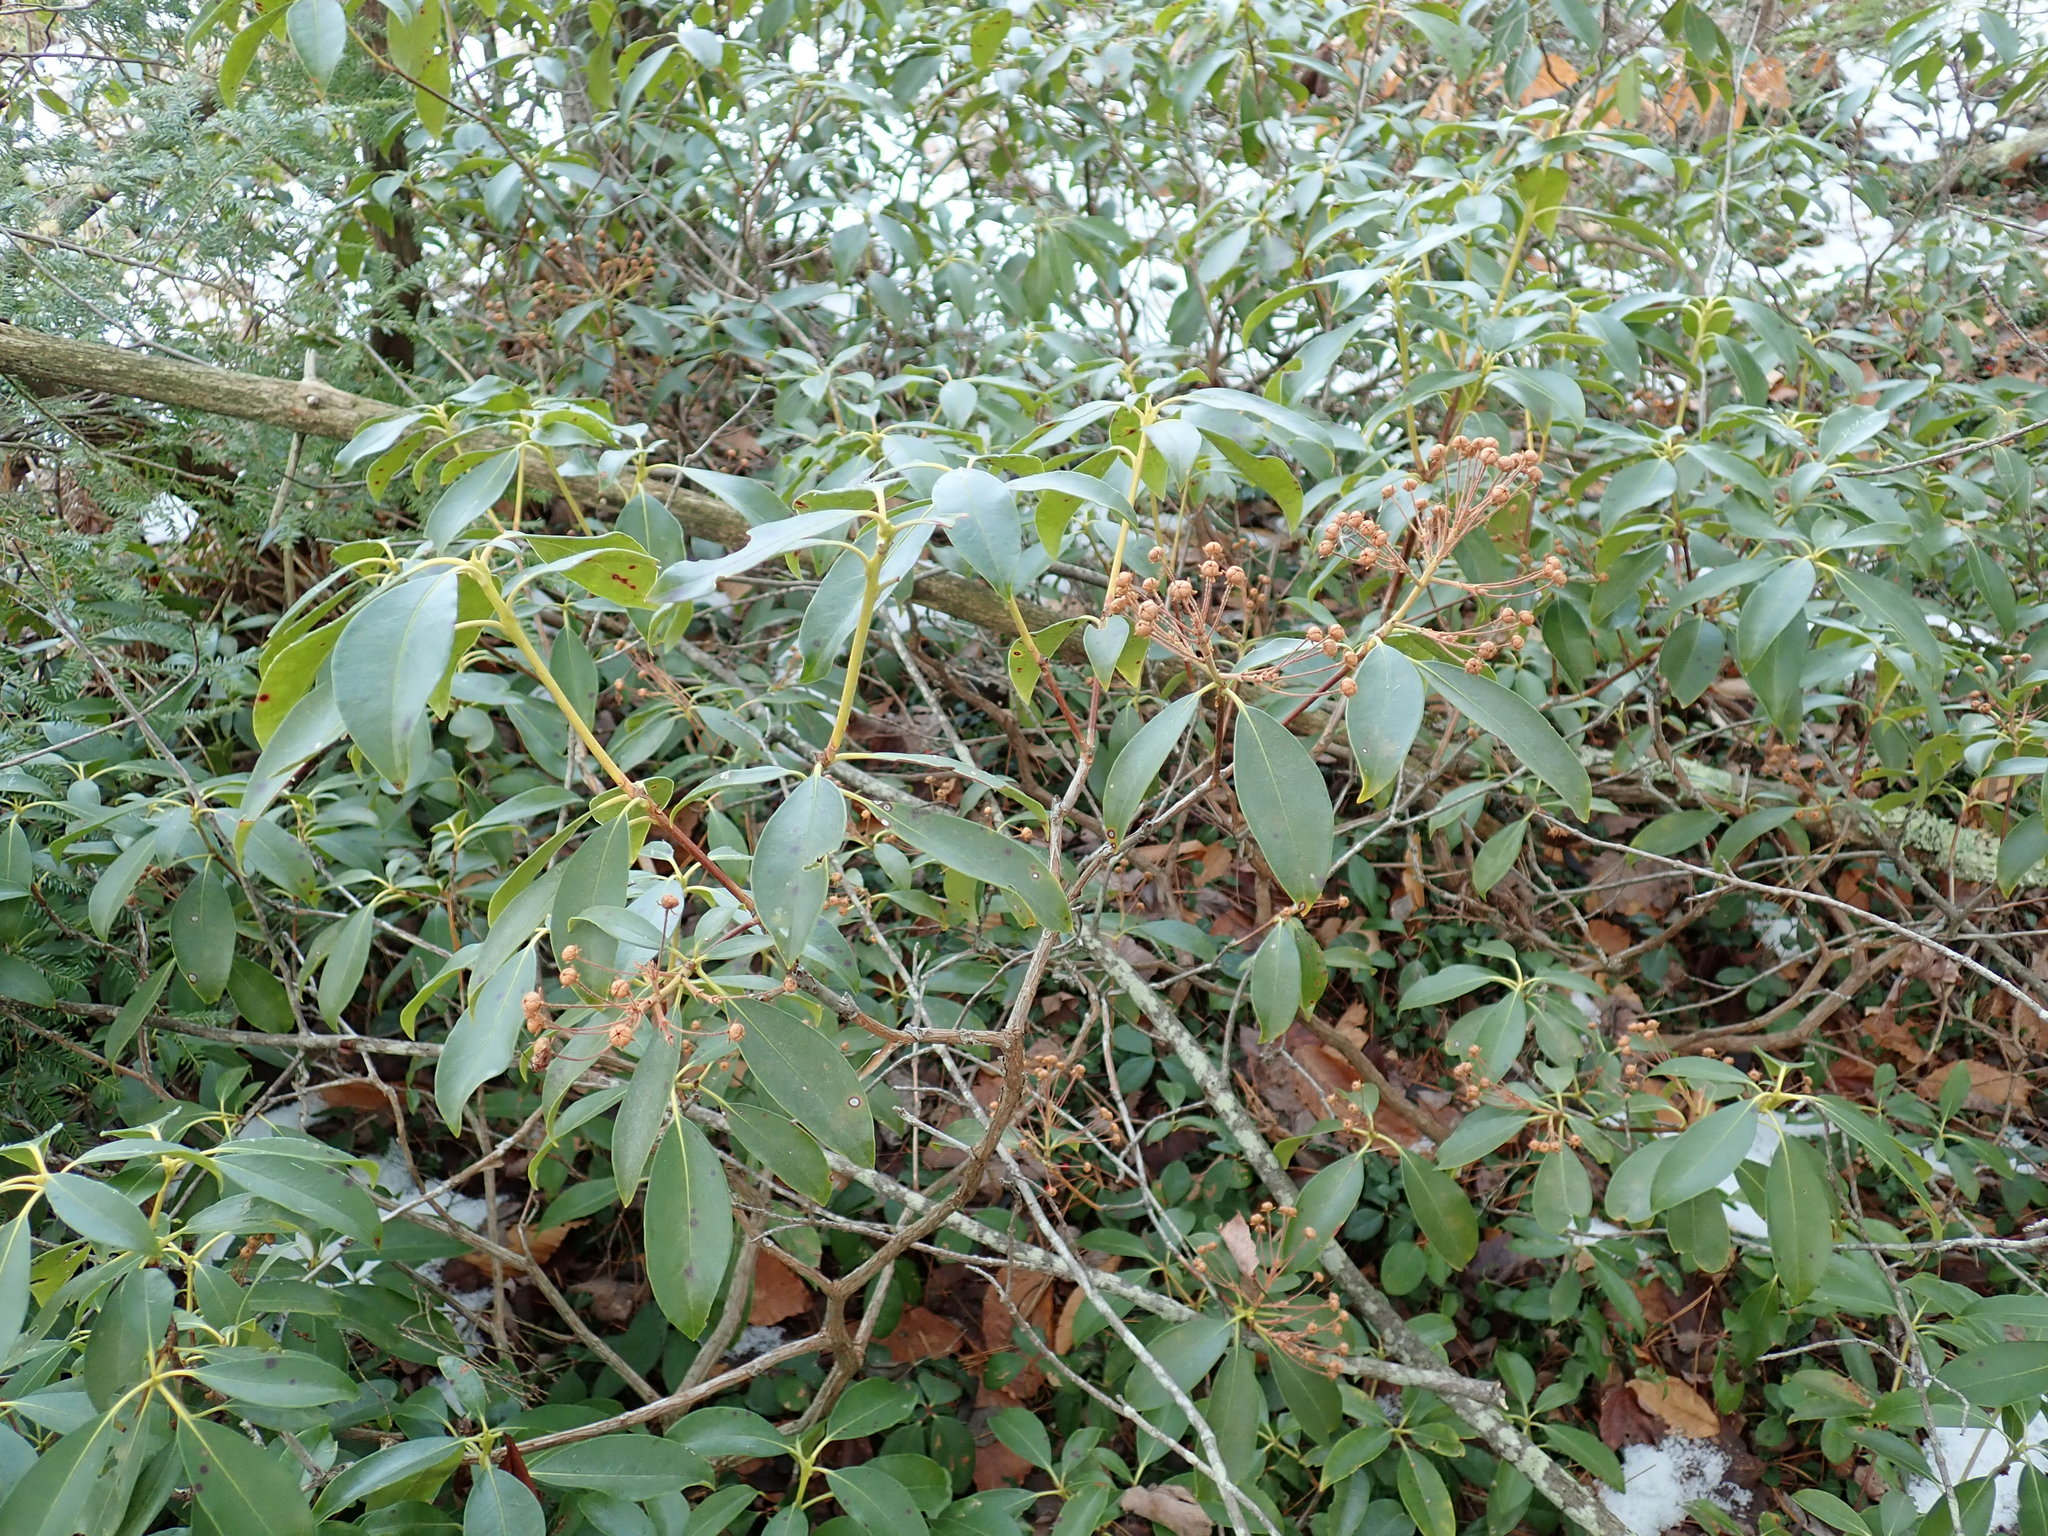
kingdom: Plantae
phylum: Tracheophyta
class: Magnoliopsida
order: Ericales
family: Ericaceae
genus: Kalmia
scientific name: Kalmia latifolia
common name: Mountain-laurel
